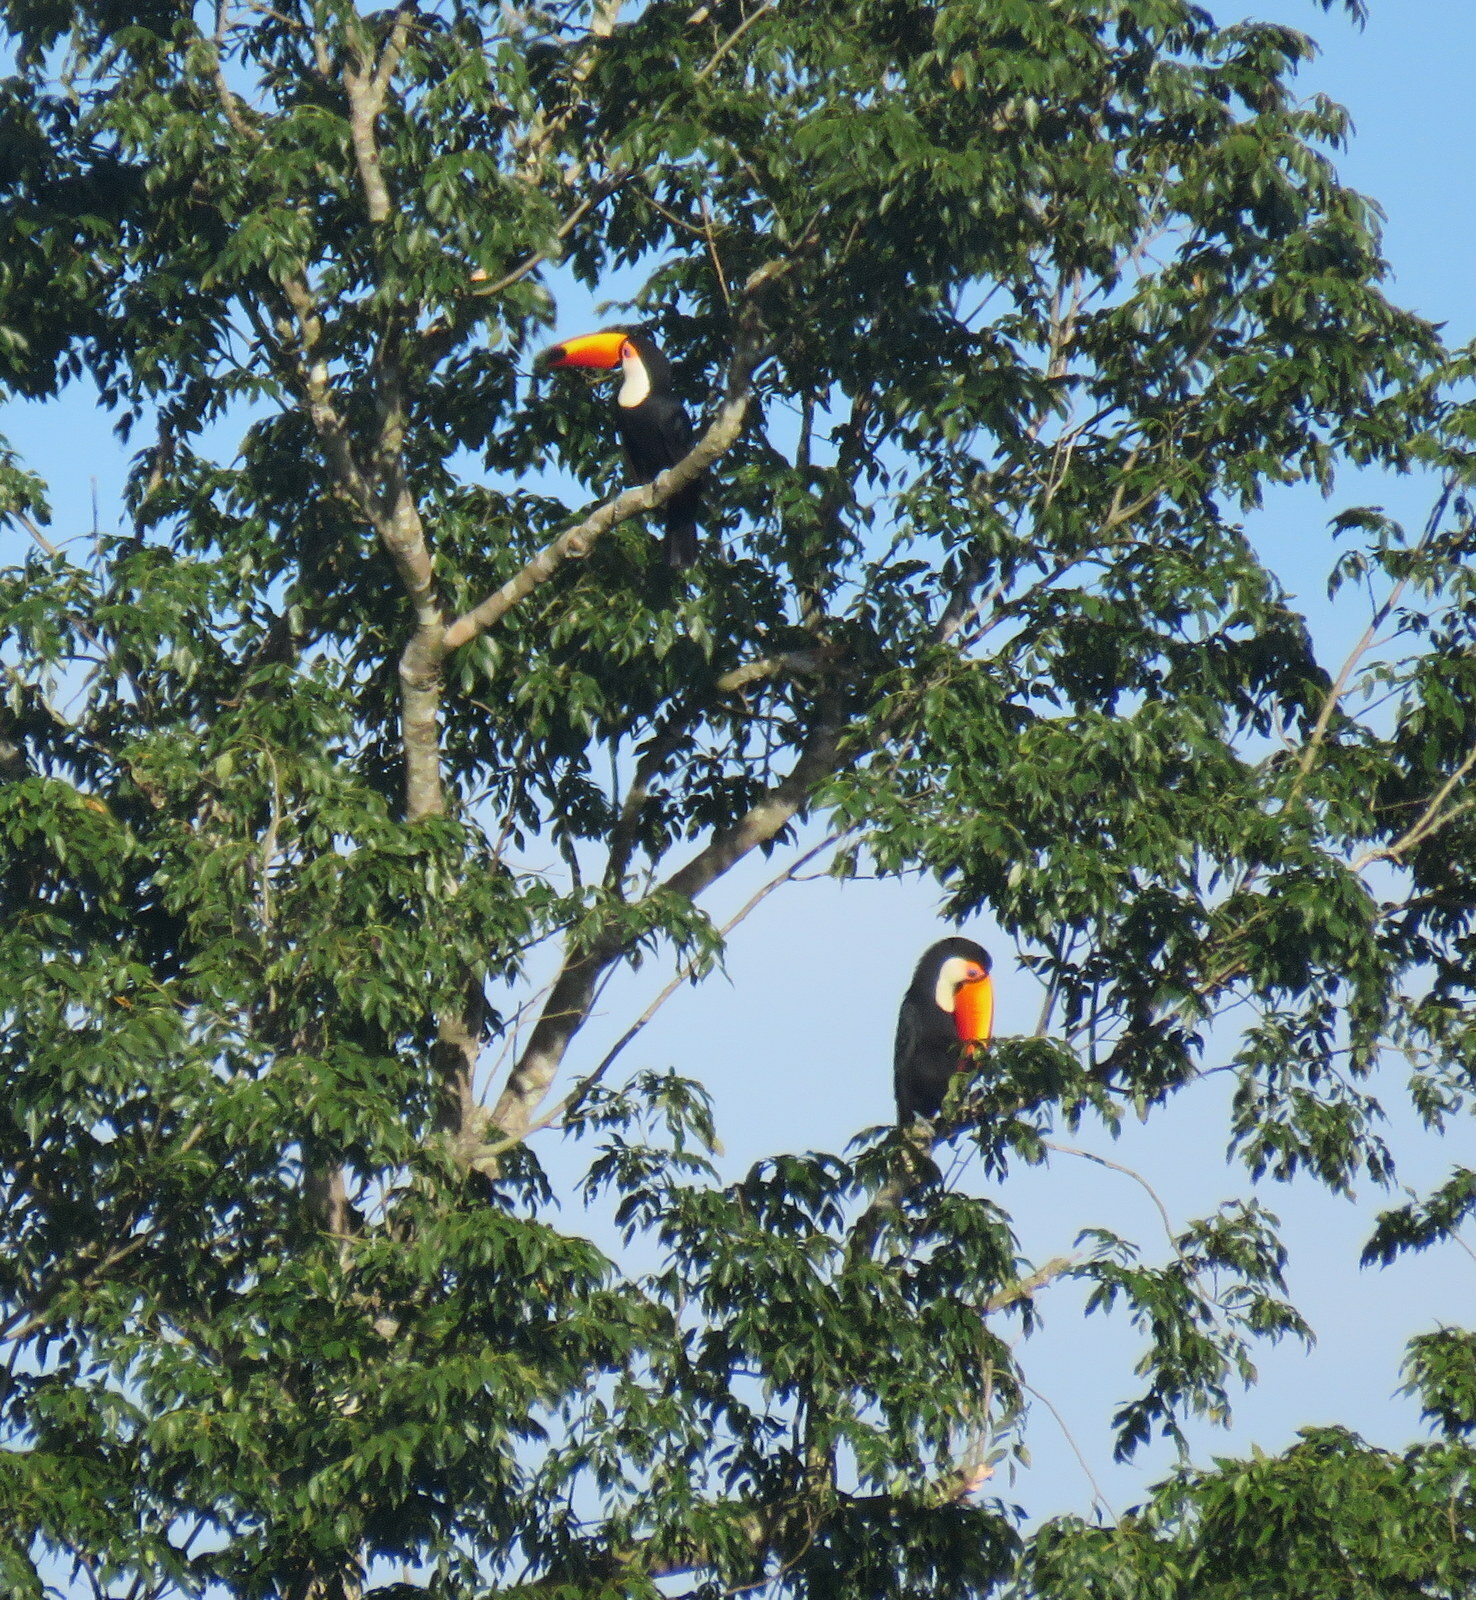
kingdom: Animalia
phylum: Chordata
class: Aves
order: Piciformes
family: Ramphastidae
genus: Ramphastos
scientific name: Ramphastos toco
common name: Toco toucan
